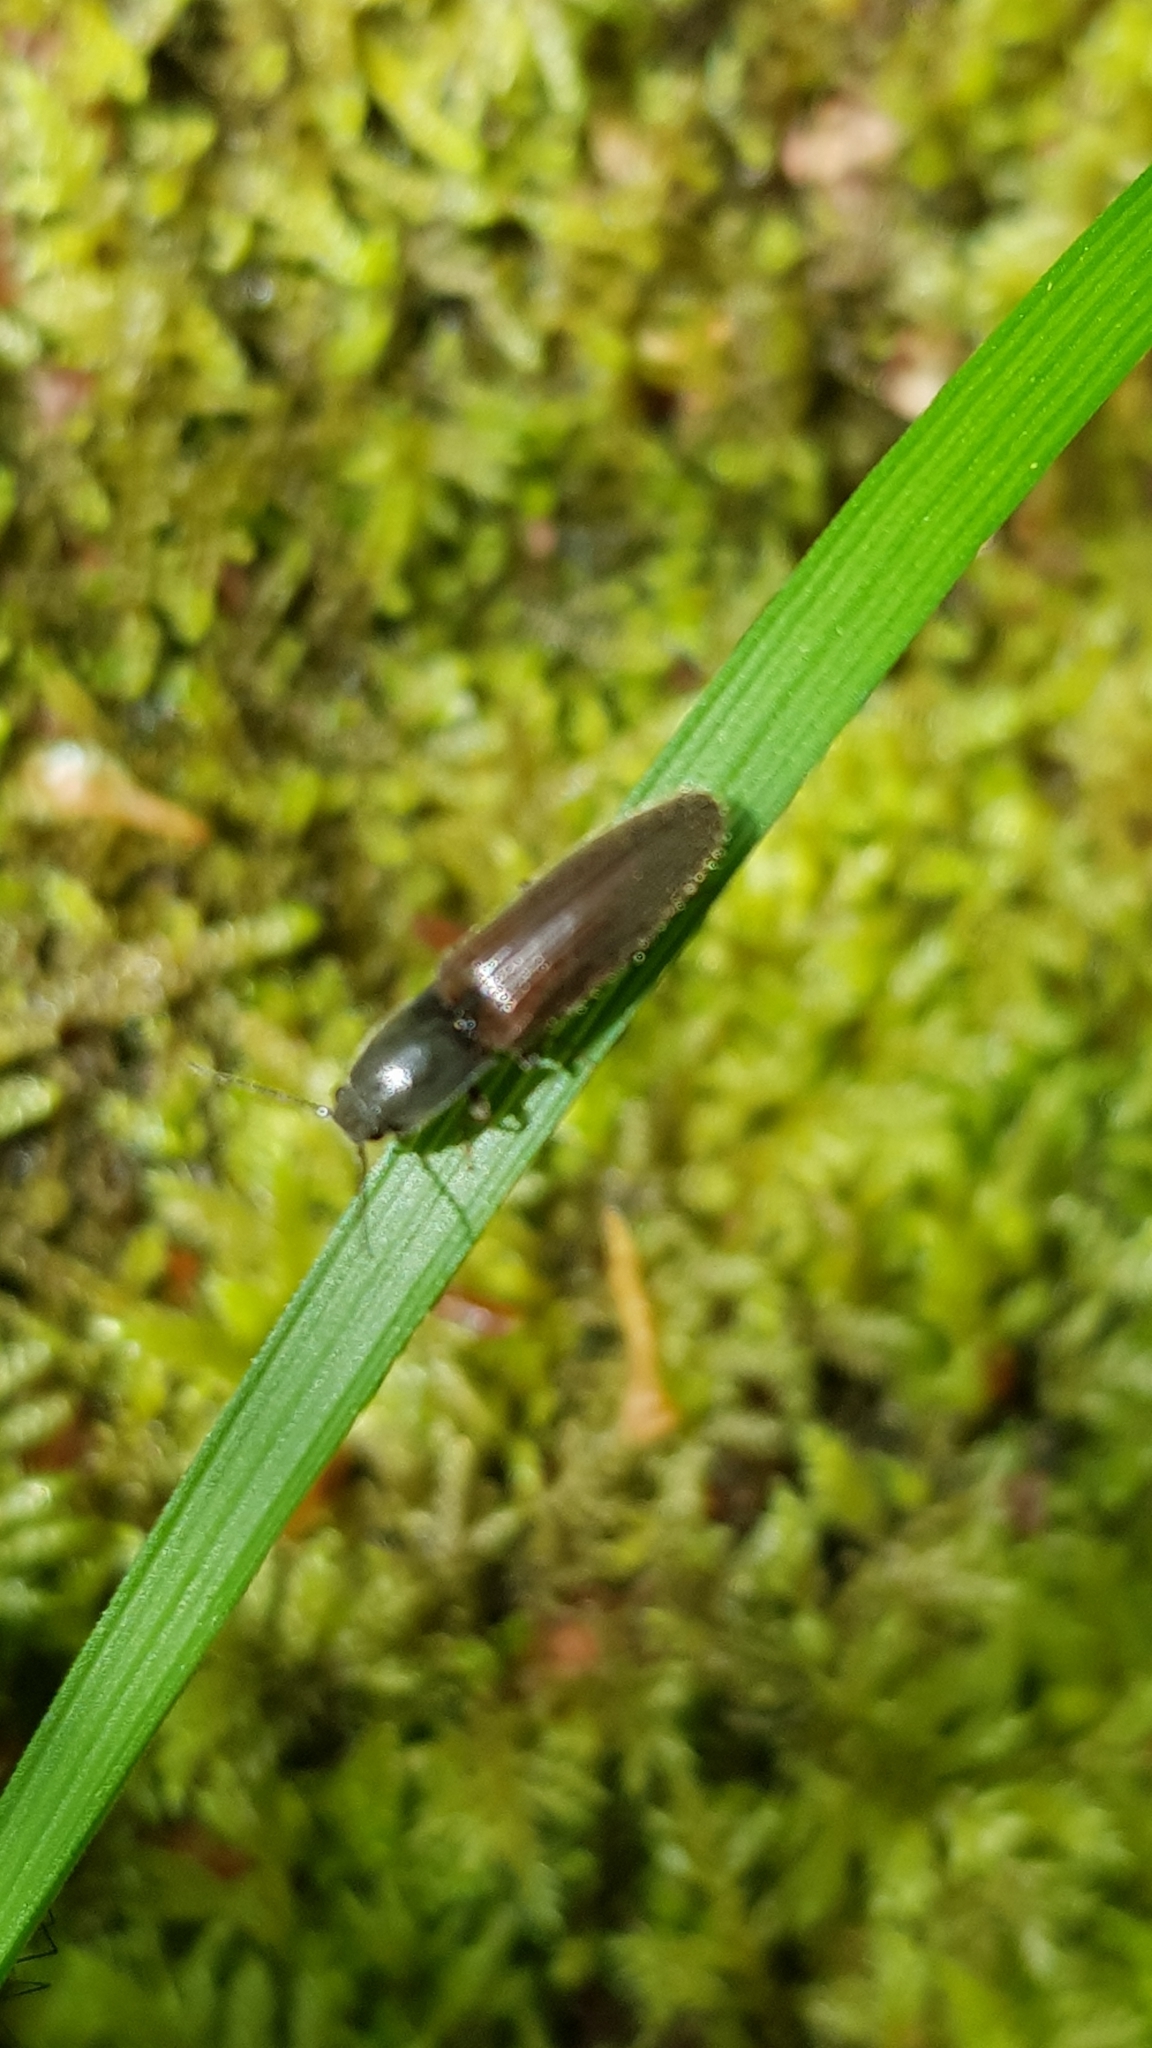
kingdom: Animalia
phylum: Arthropoda
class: Insecta
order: Coleoptera
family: Elateridae
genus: Athous
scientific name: Athous haemorrhoidalis
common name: Red-brown click beetle
